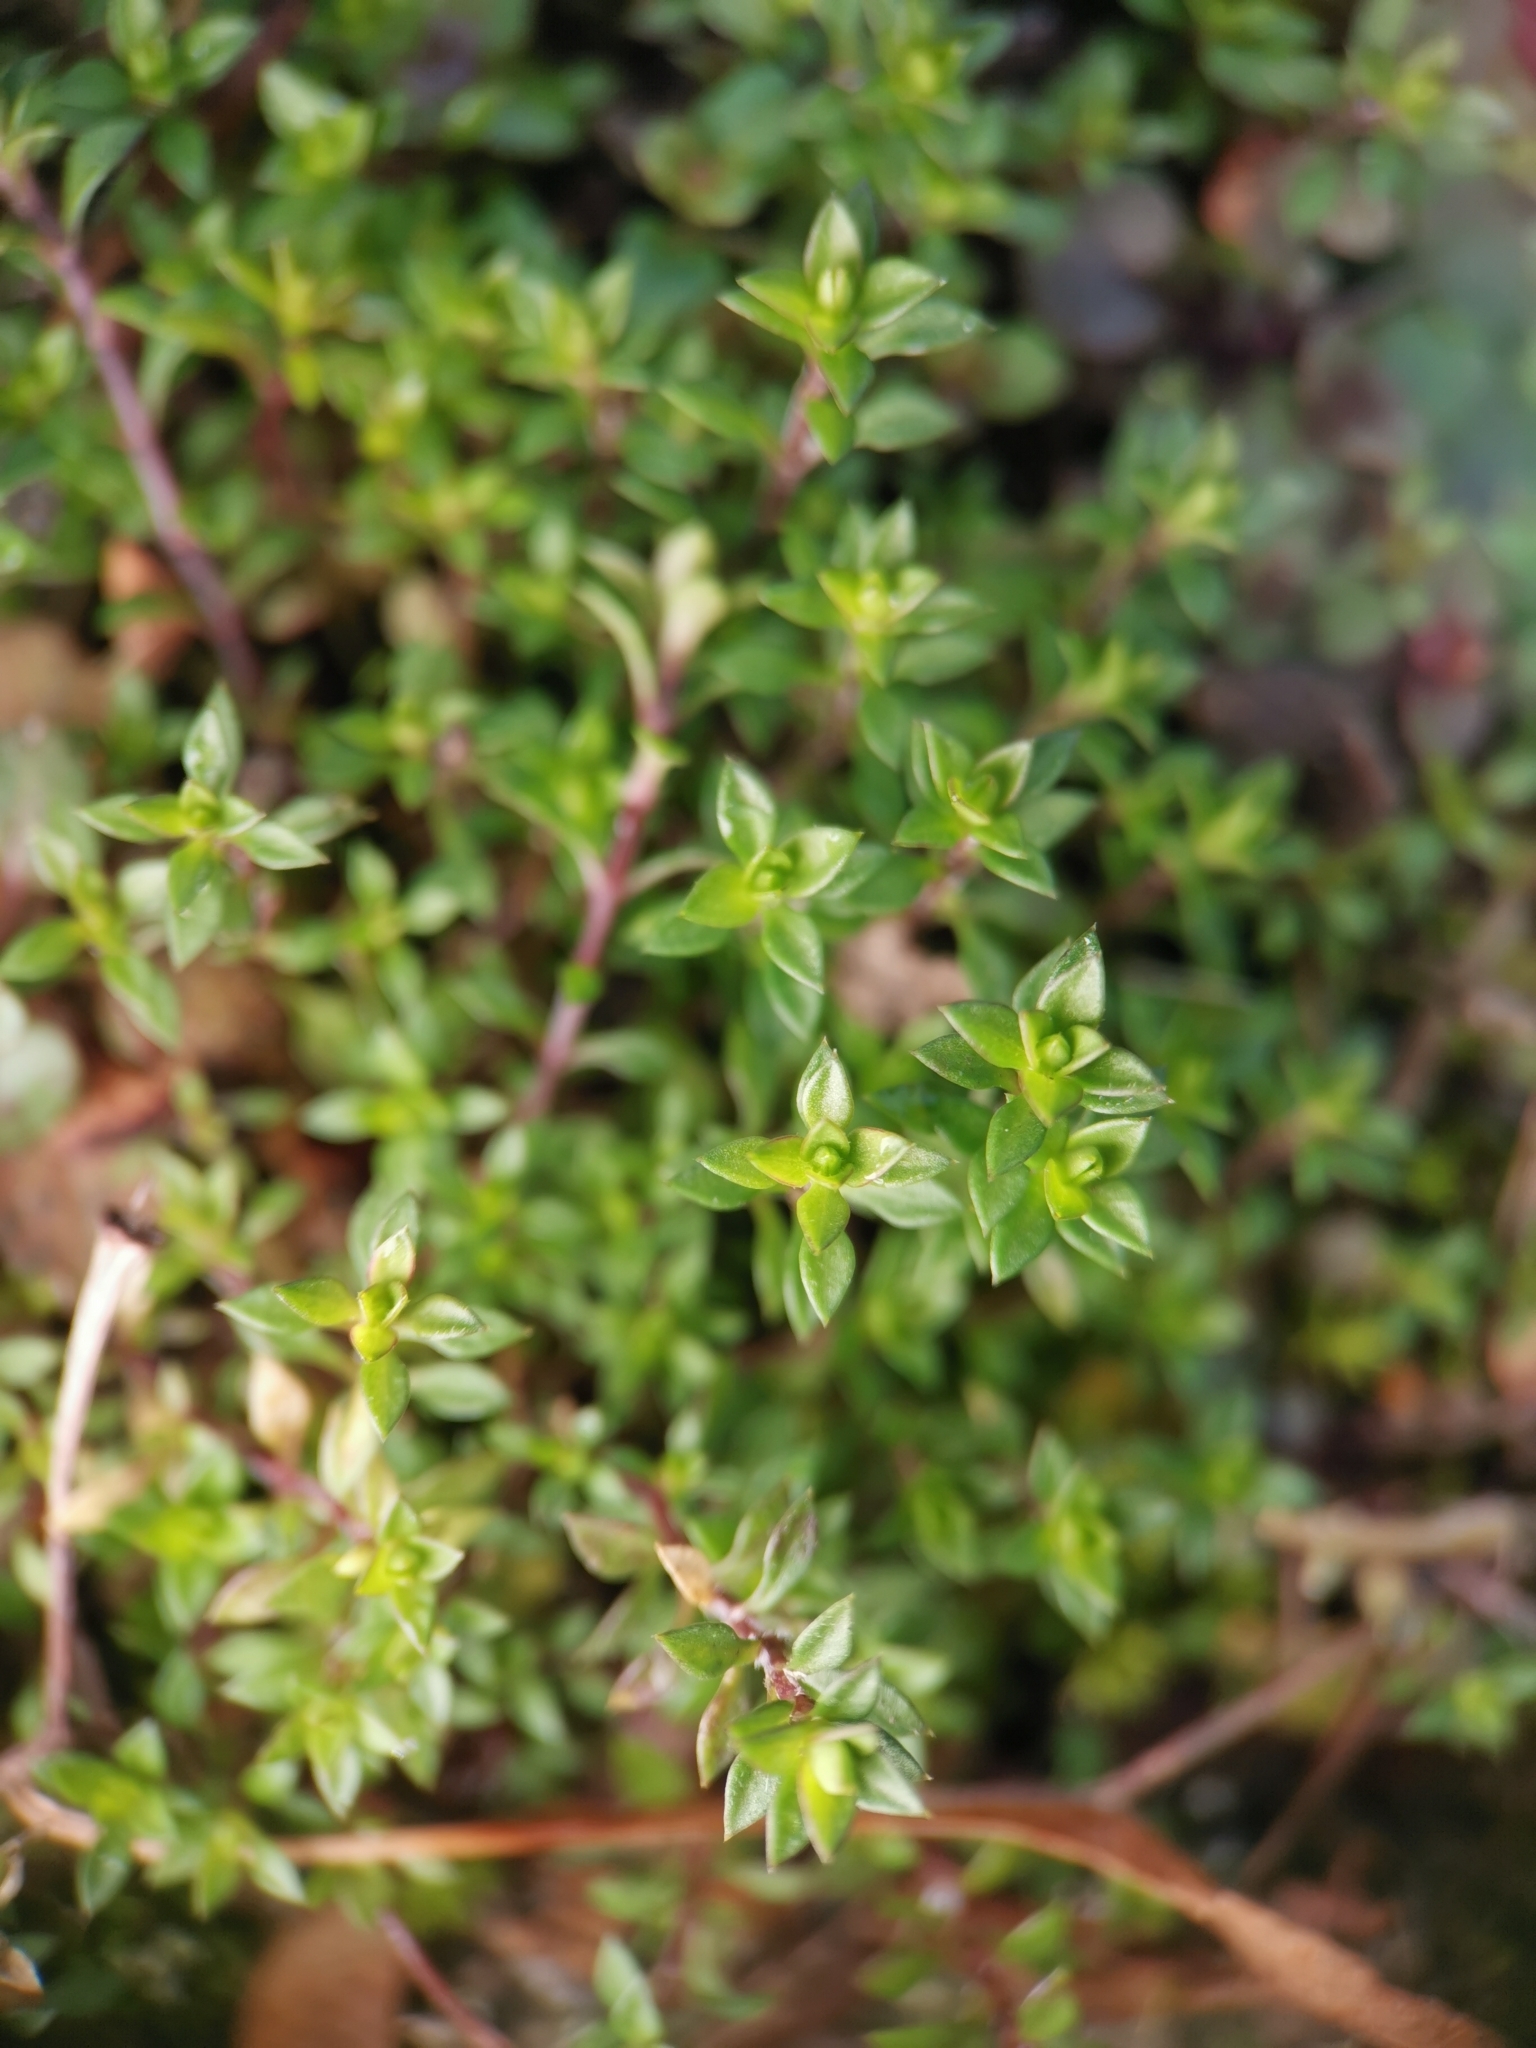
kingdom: Plantae
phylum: Tracheophyta
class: Magnoliopsida
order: Caryophyllales
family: Caryophyllaceae
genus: Arenaria
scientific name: Arenaria serpyllifolia
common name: Thyme-leaved sandwort
